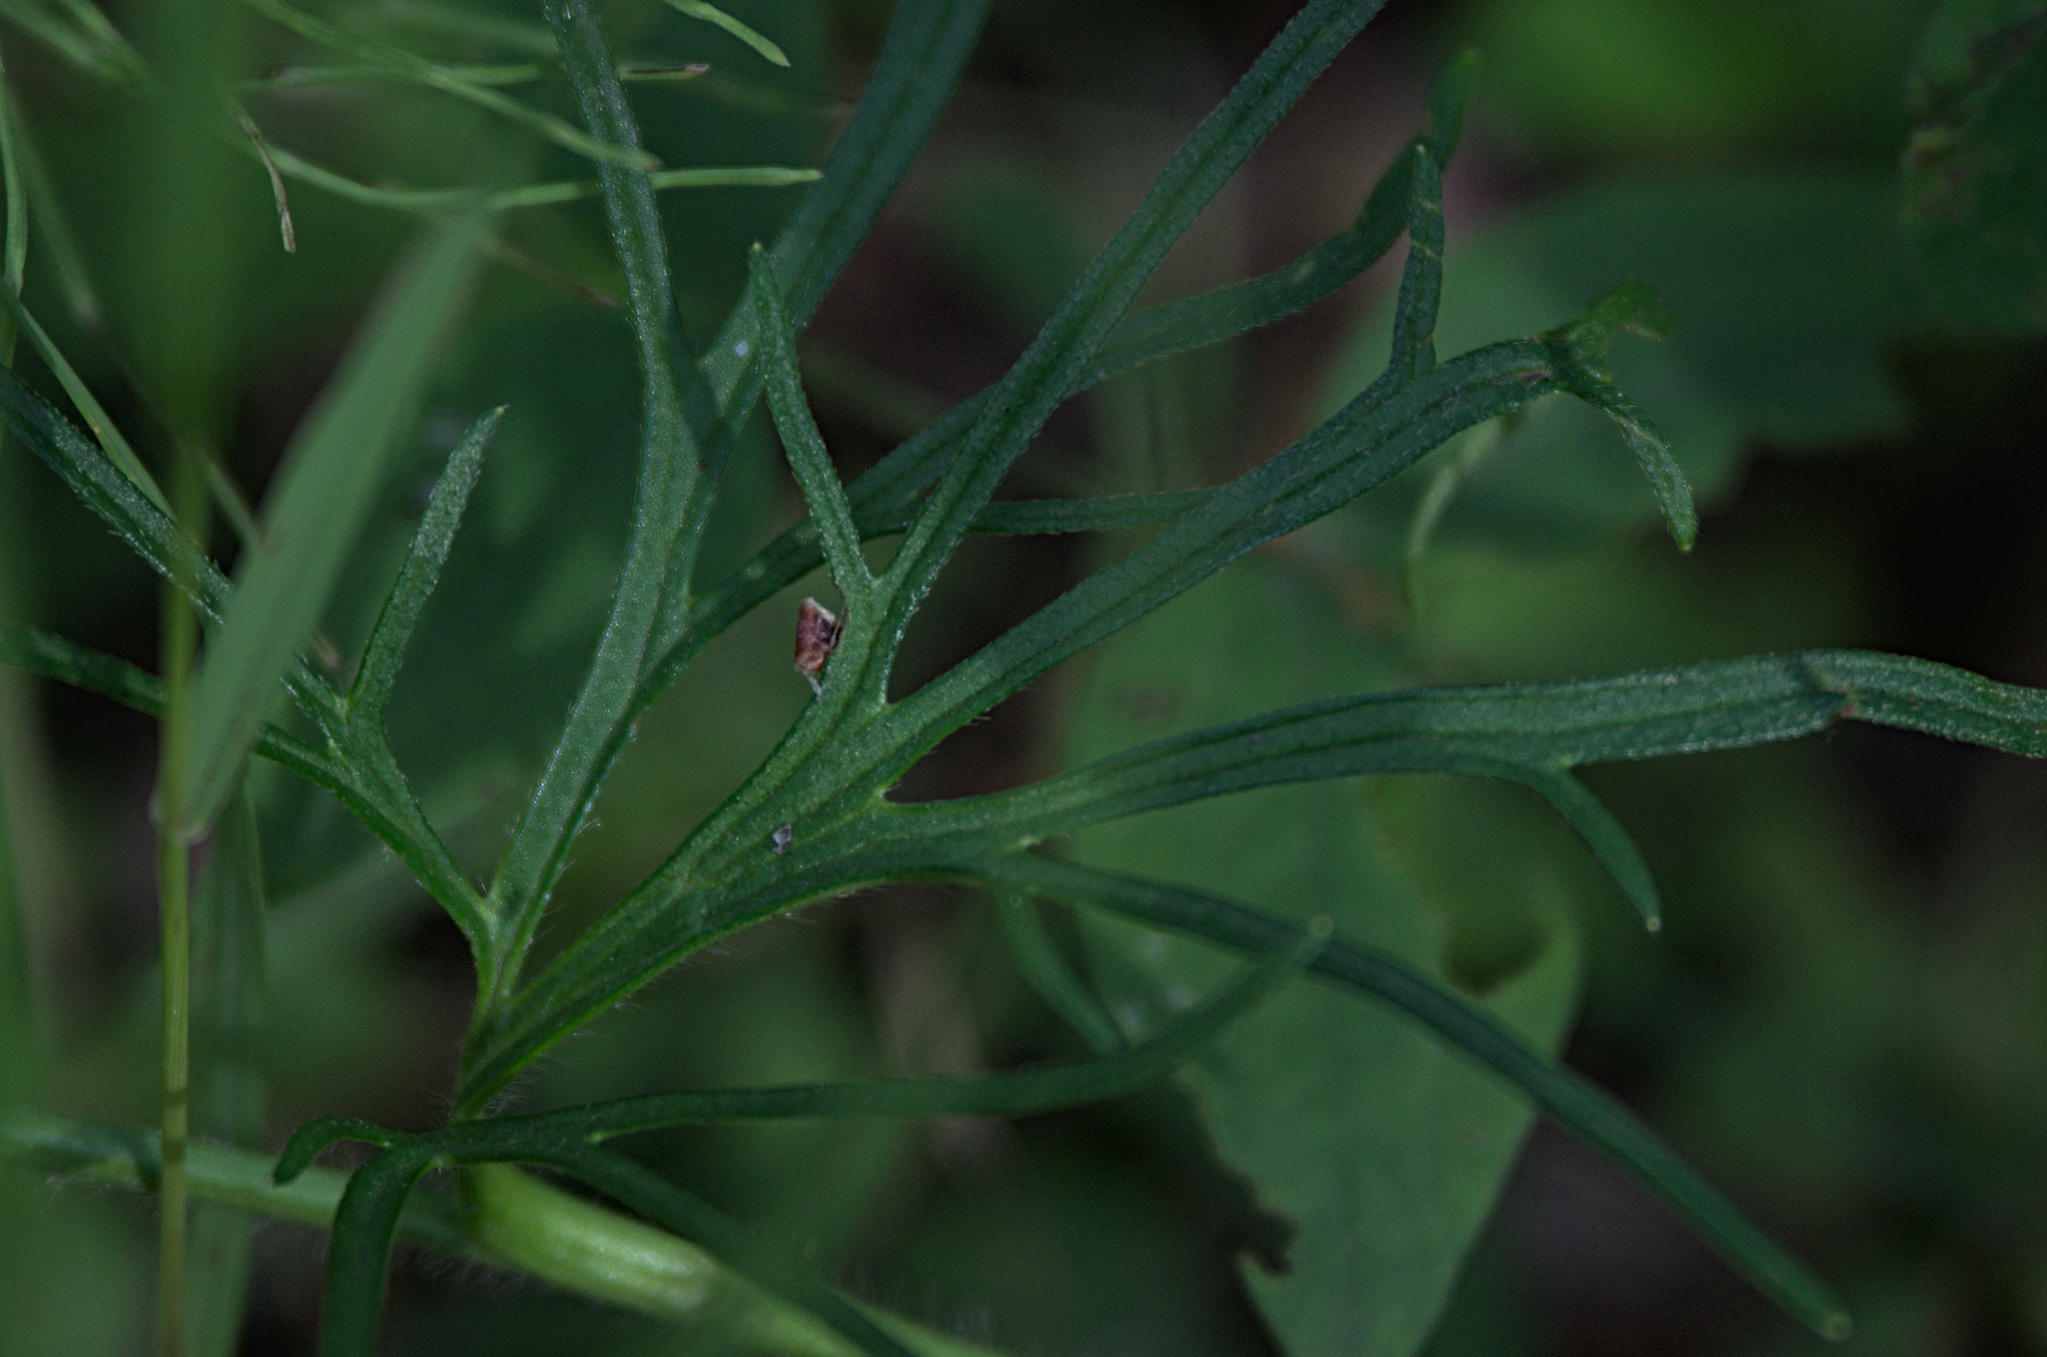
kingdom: Plantae
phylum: Tracheophyta
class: Magnoliopsida
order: Ranunculales
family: Ranunculaceae
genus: Ranunculus
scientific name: Ranunculus polyanthemos
